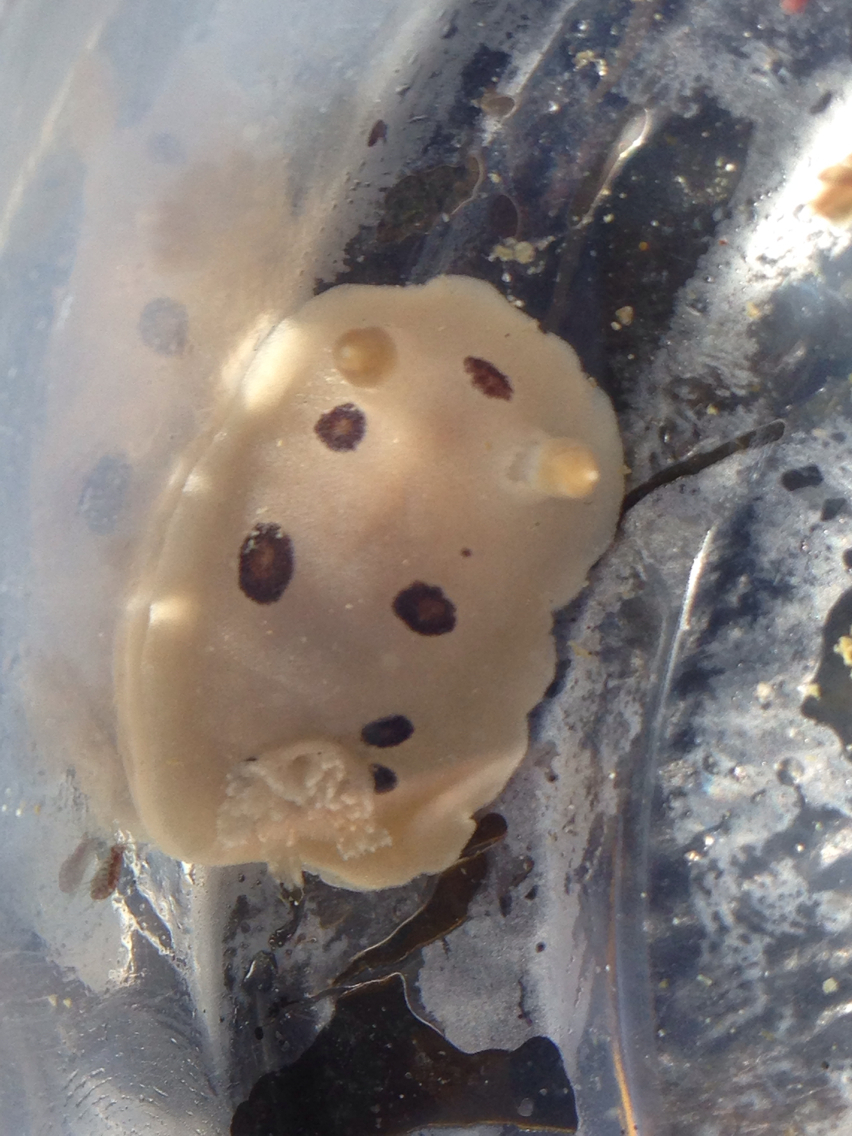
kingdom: Animalia
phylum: Mollusca
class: Gastropoda
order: Nudibranchia
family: Discodorididae
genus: Diaulula
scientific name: Diaulula sandiegensis
